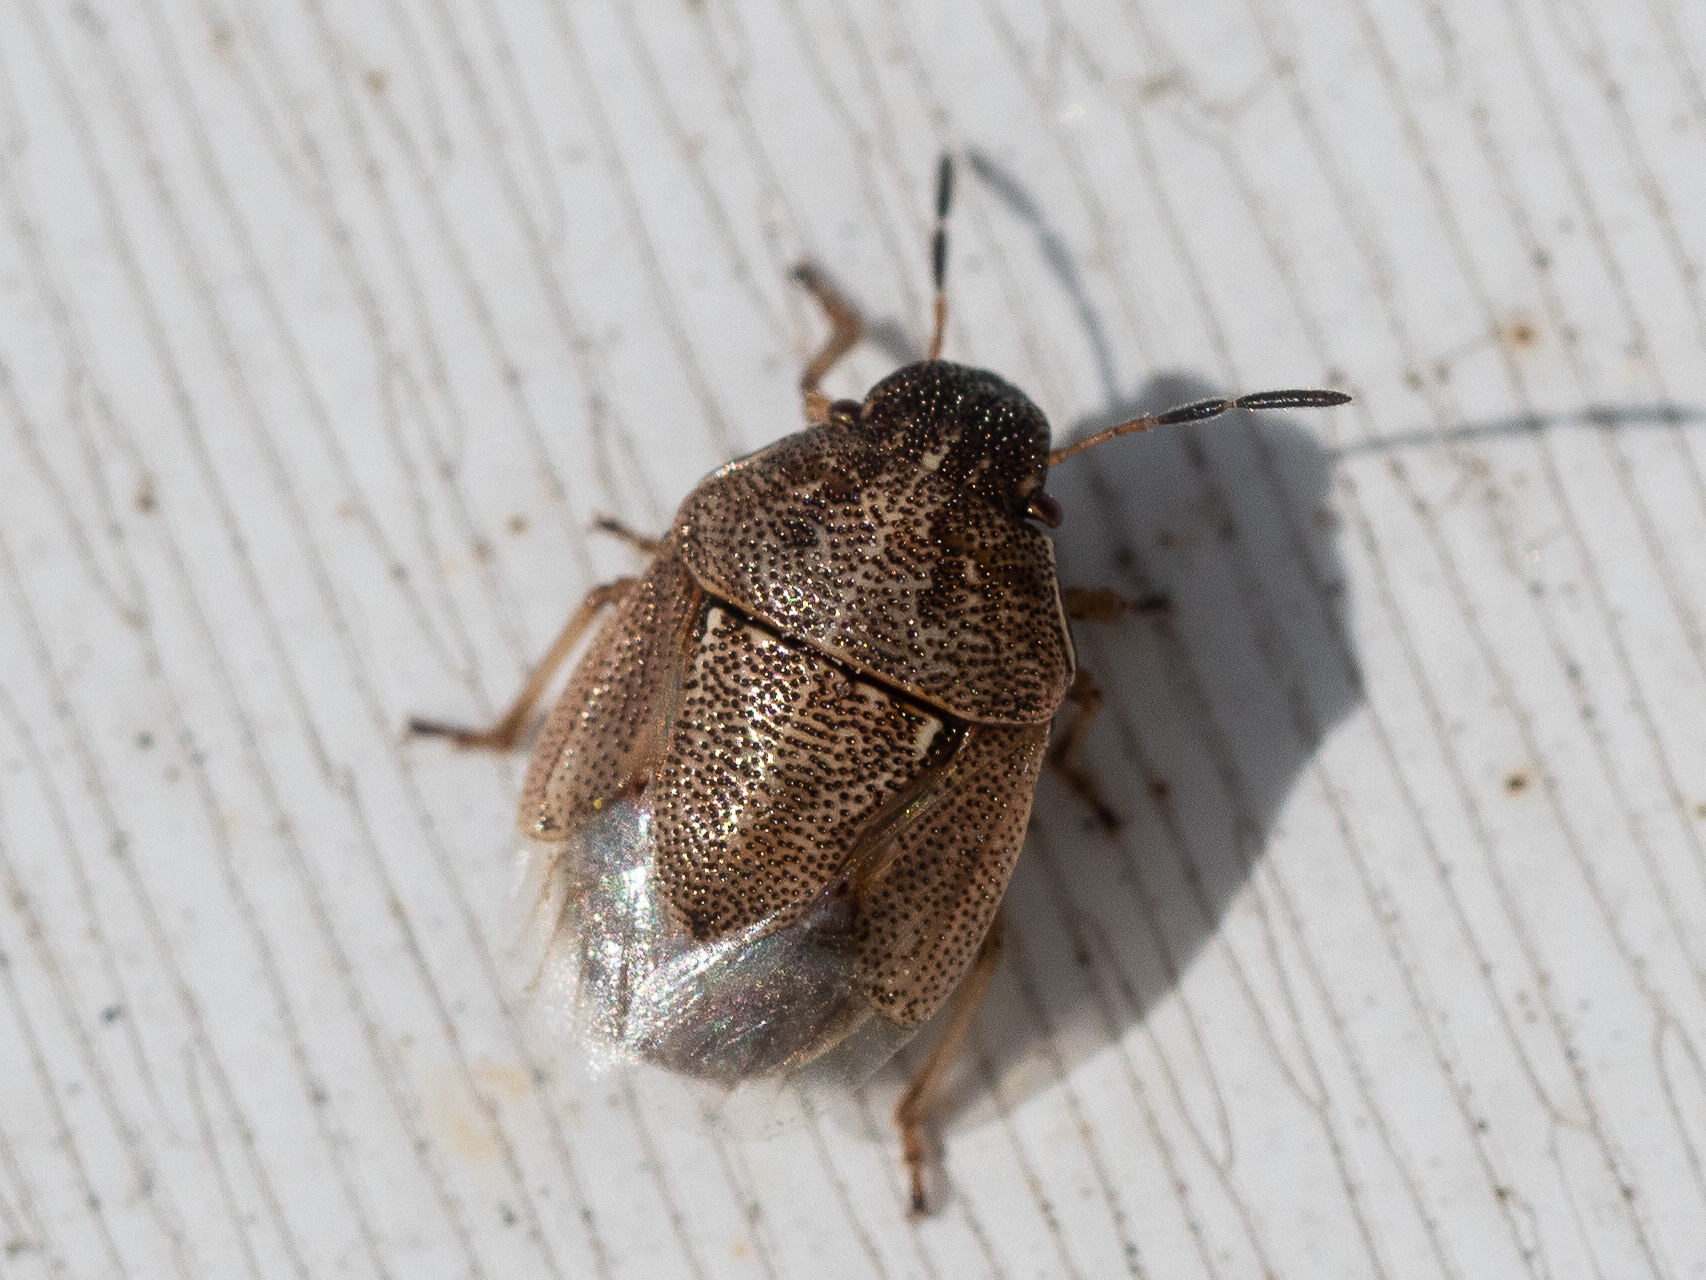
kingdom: Animalia
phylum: Arthropoda
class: Insecta
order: Hemiptera
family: Pentatomidae
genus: Neottiglossa
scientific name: Neottiglossa pusilla
